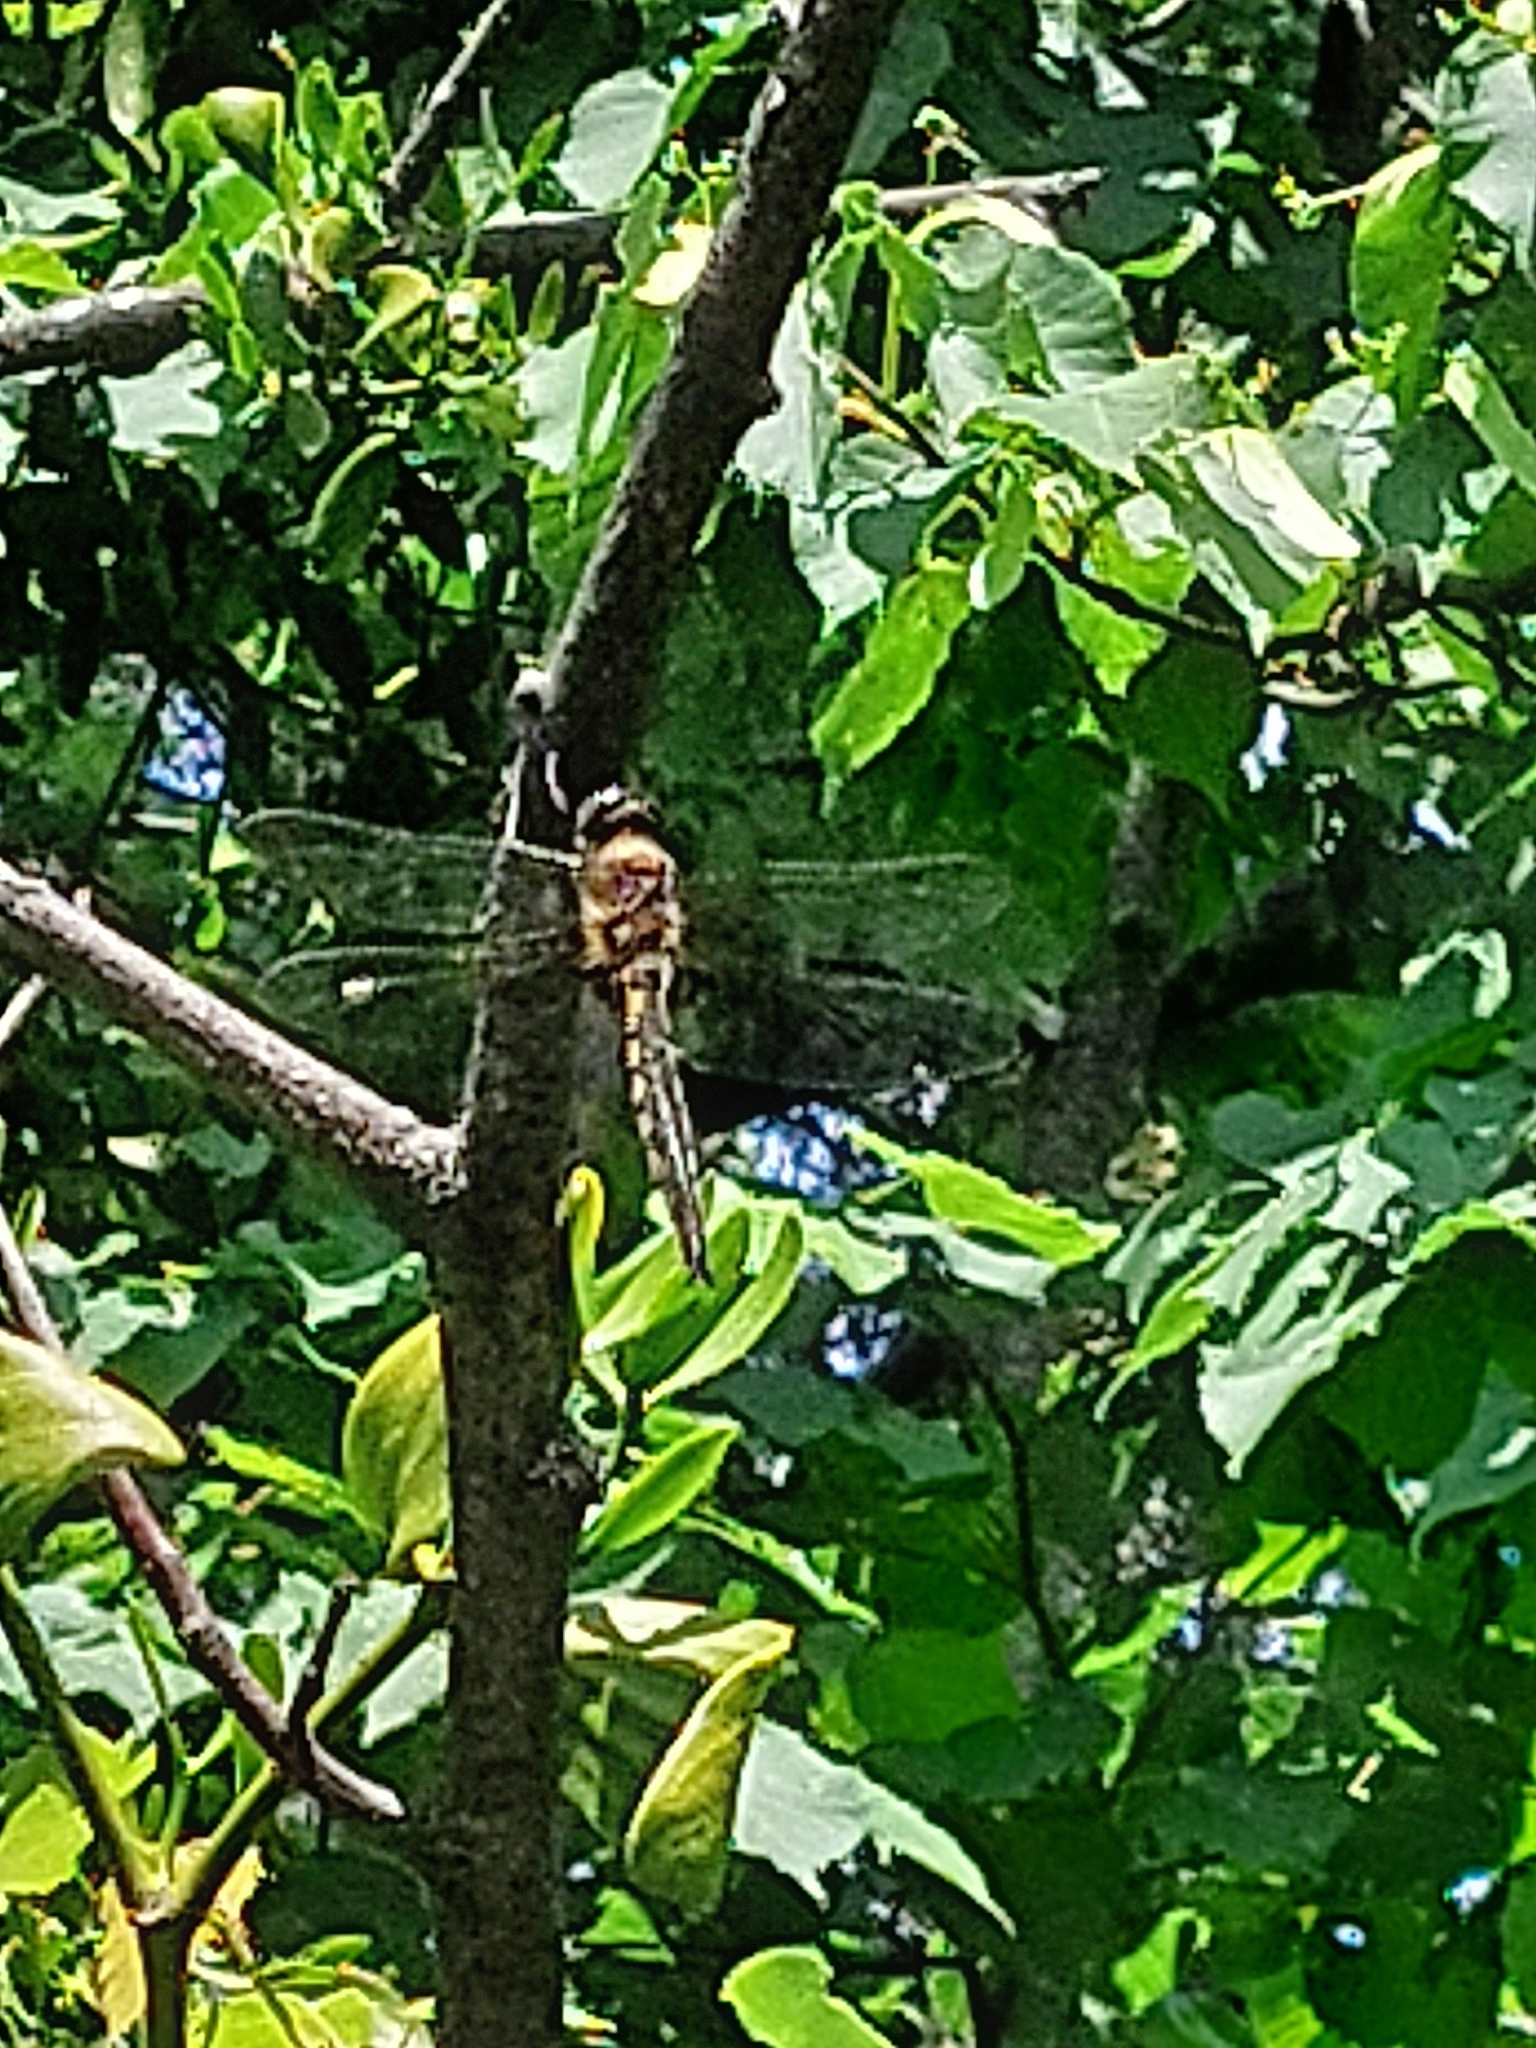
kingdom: Animalia
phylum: Arthropoda
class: Insecta
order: Odonata
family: Corduliidae
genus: Epitheca
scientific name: Epitheca bimaculata
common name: Eurasian baskettail
